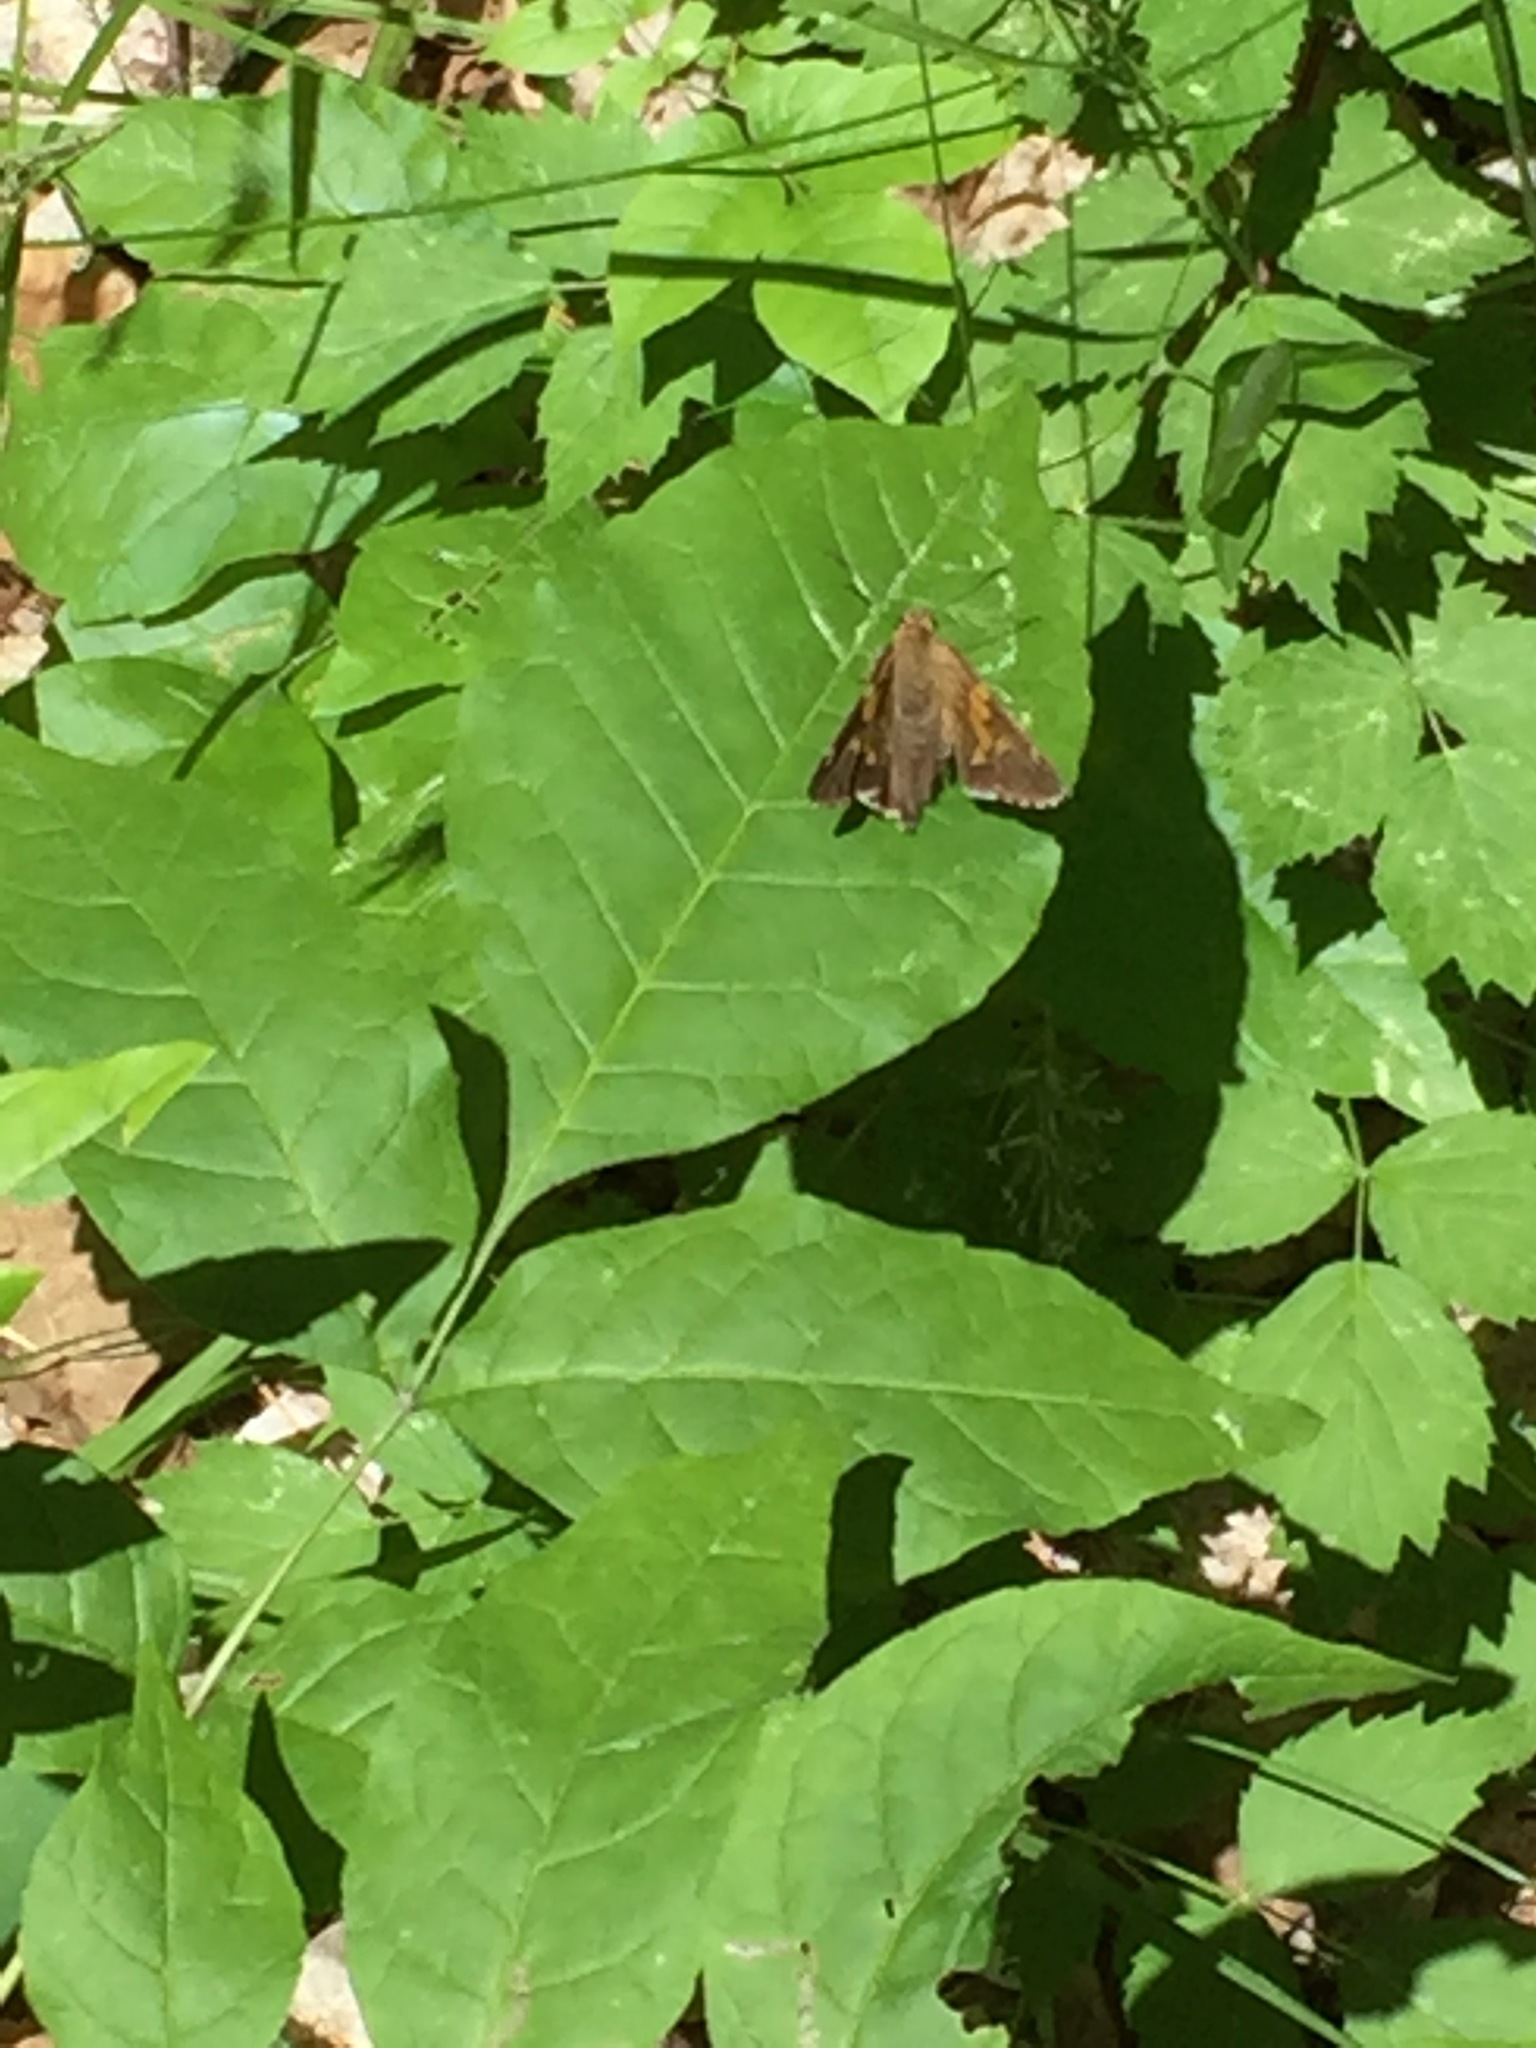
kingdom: Animalia
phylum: Arthropoda
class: Insecta
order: Lepidoptera
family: Hesperiidae
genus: Epargyreus
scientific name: Epargyreus clarus
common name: Silver-spotted skipper
